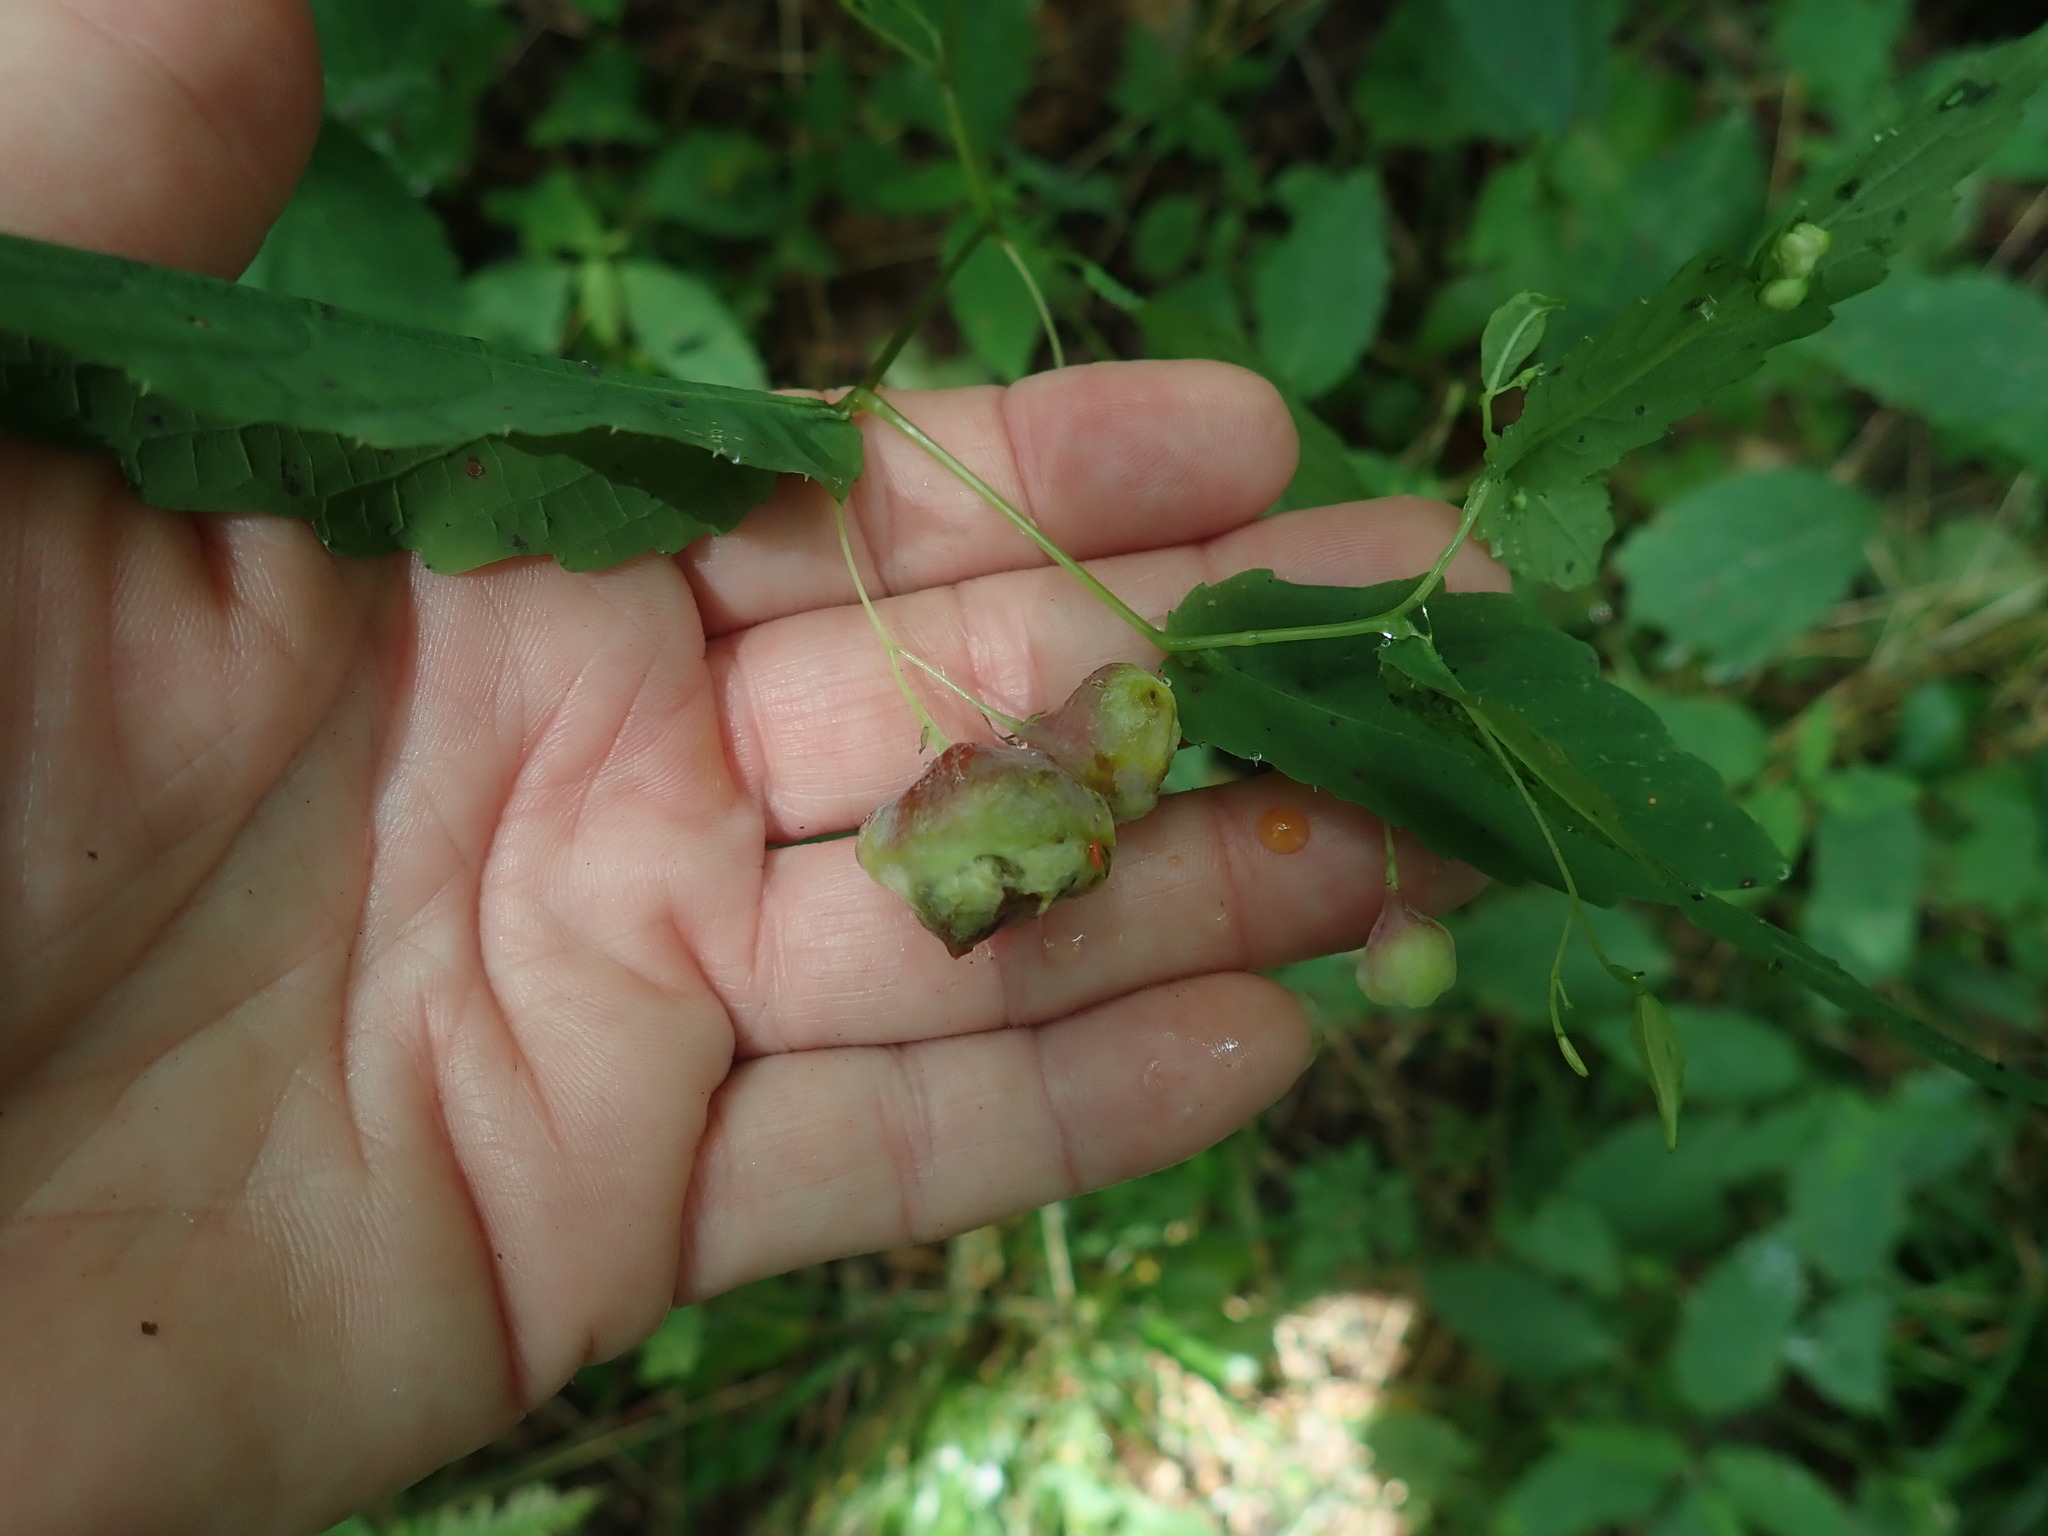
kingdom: Animalia
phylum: Arthropoda
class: Insecta
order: Diptera
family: Cecidomyiidae
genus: Schizomyia
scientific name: Schizomyia impatientis
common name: Jewelweed gall midge
